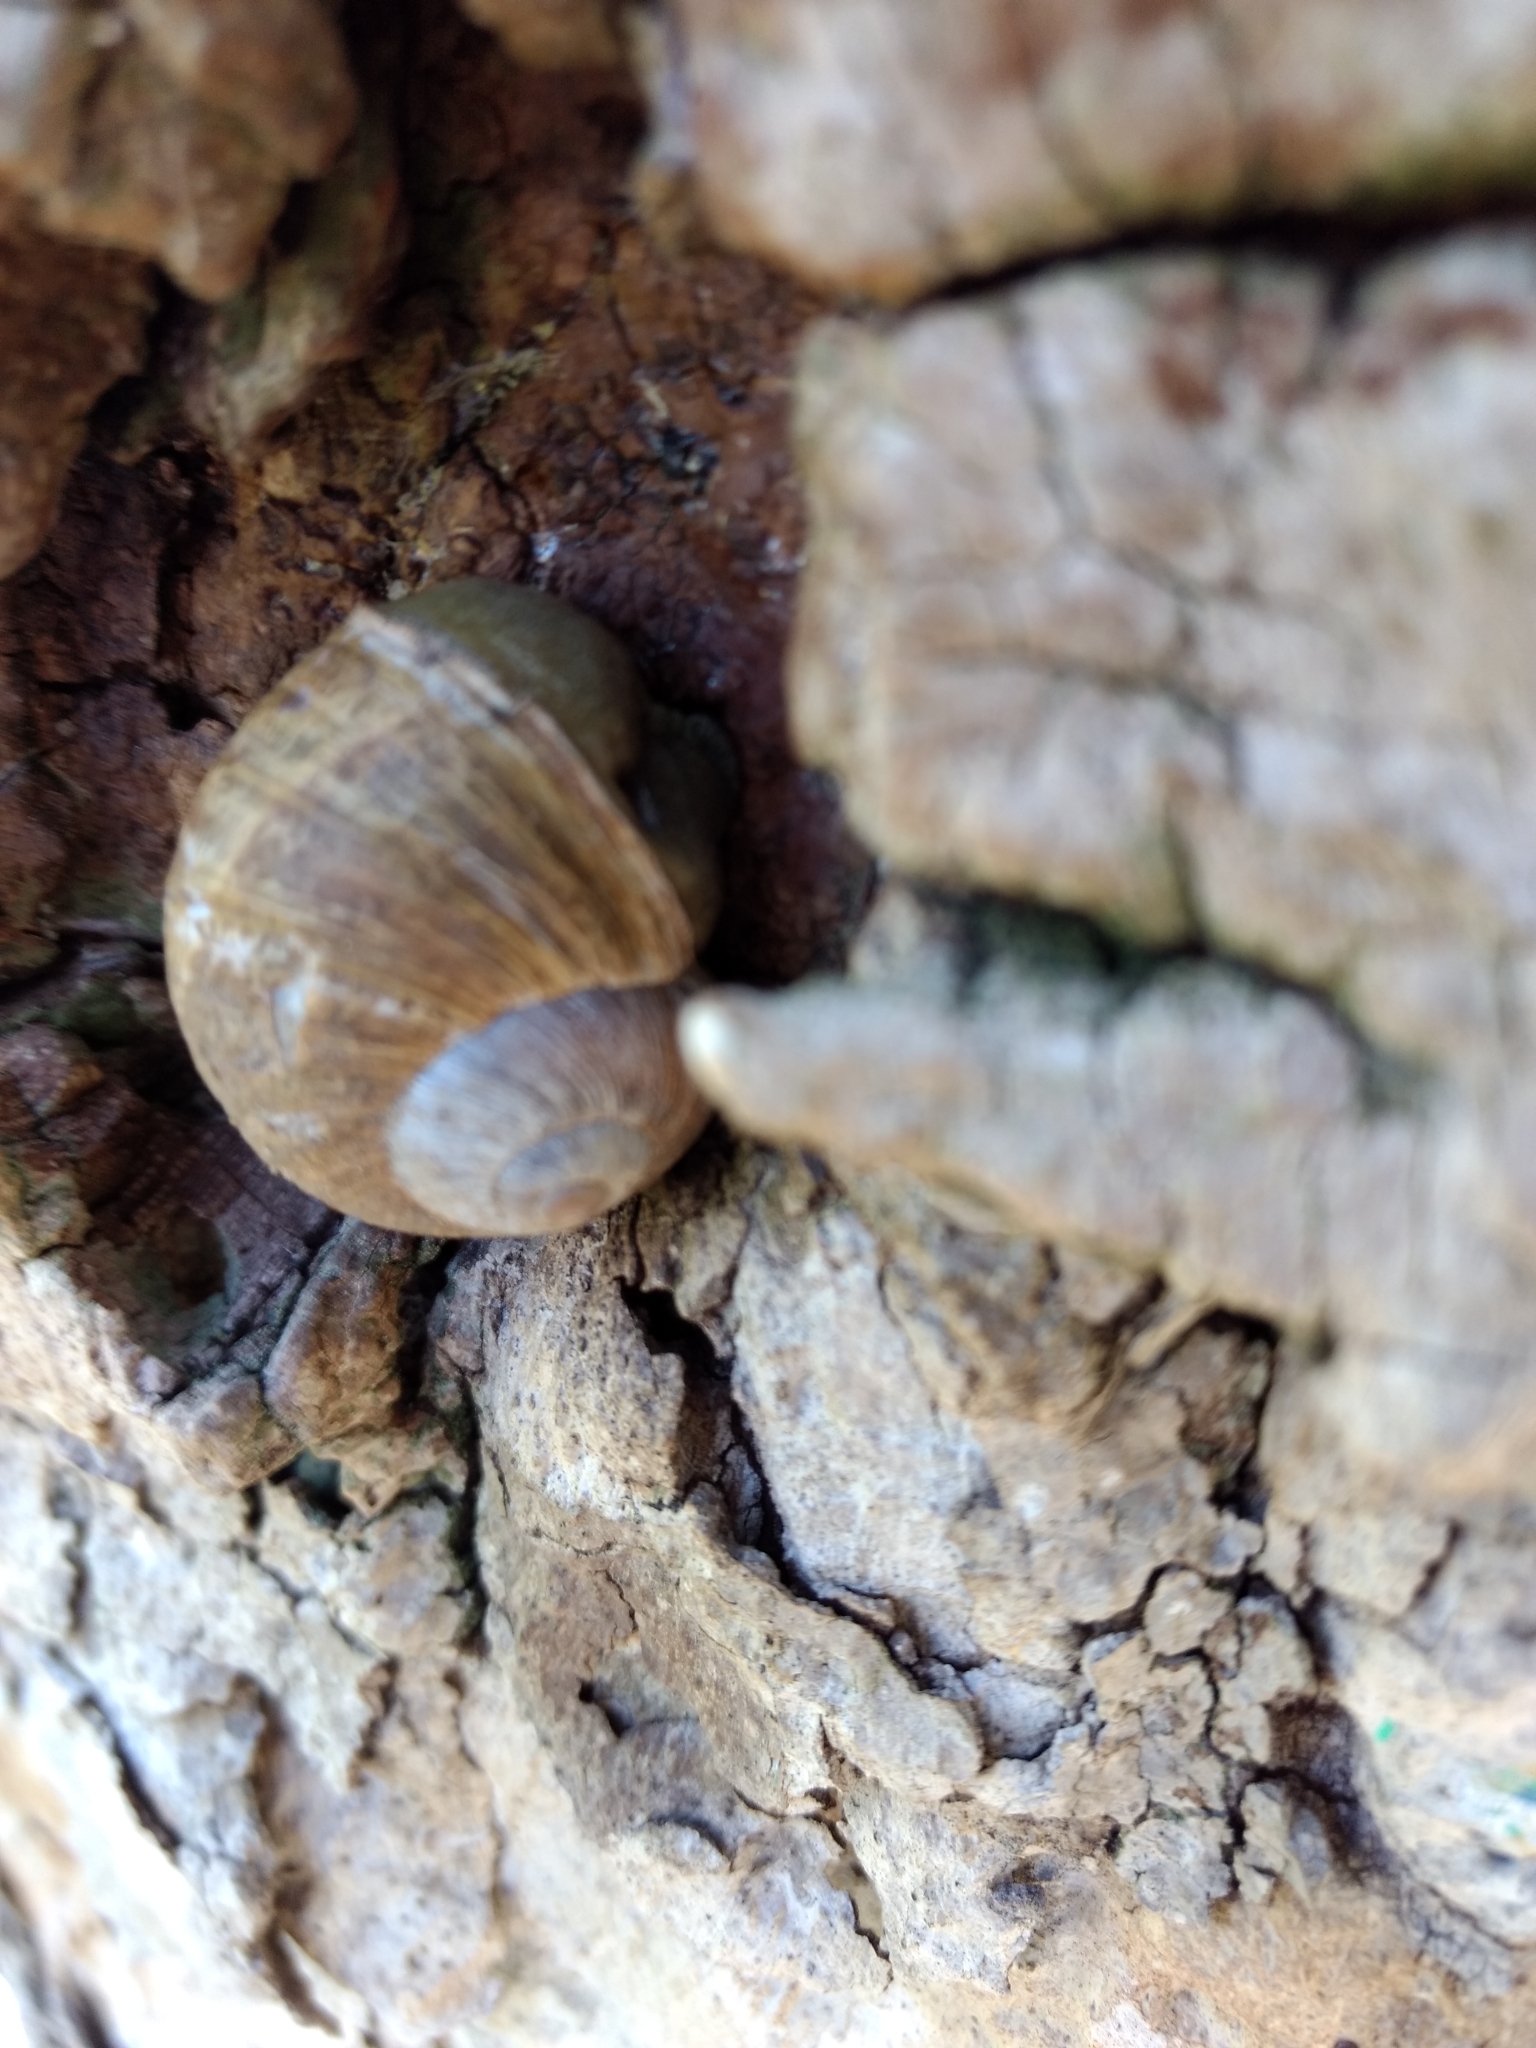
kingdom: Animalia
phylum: Mollusca
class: Gastropoda
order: Stylommatophora
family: Helicidae
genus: Cornu
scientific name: Cornu aspersum
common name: Brown garden snail
